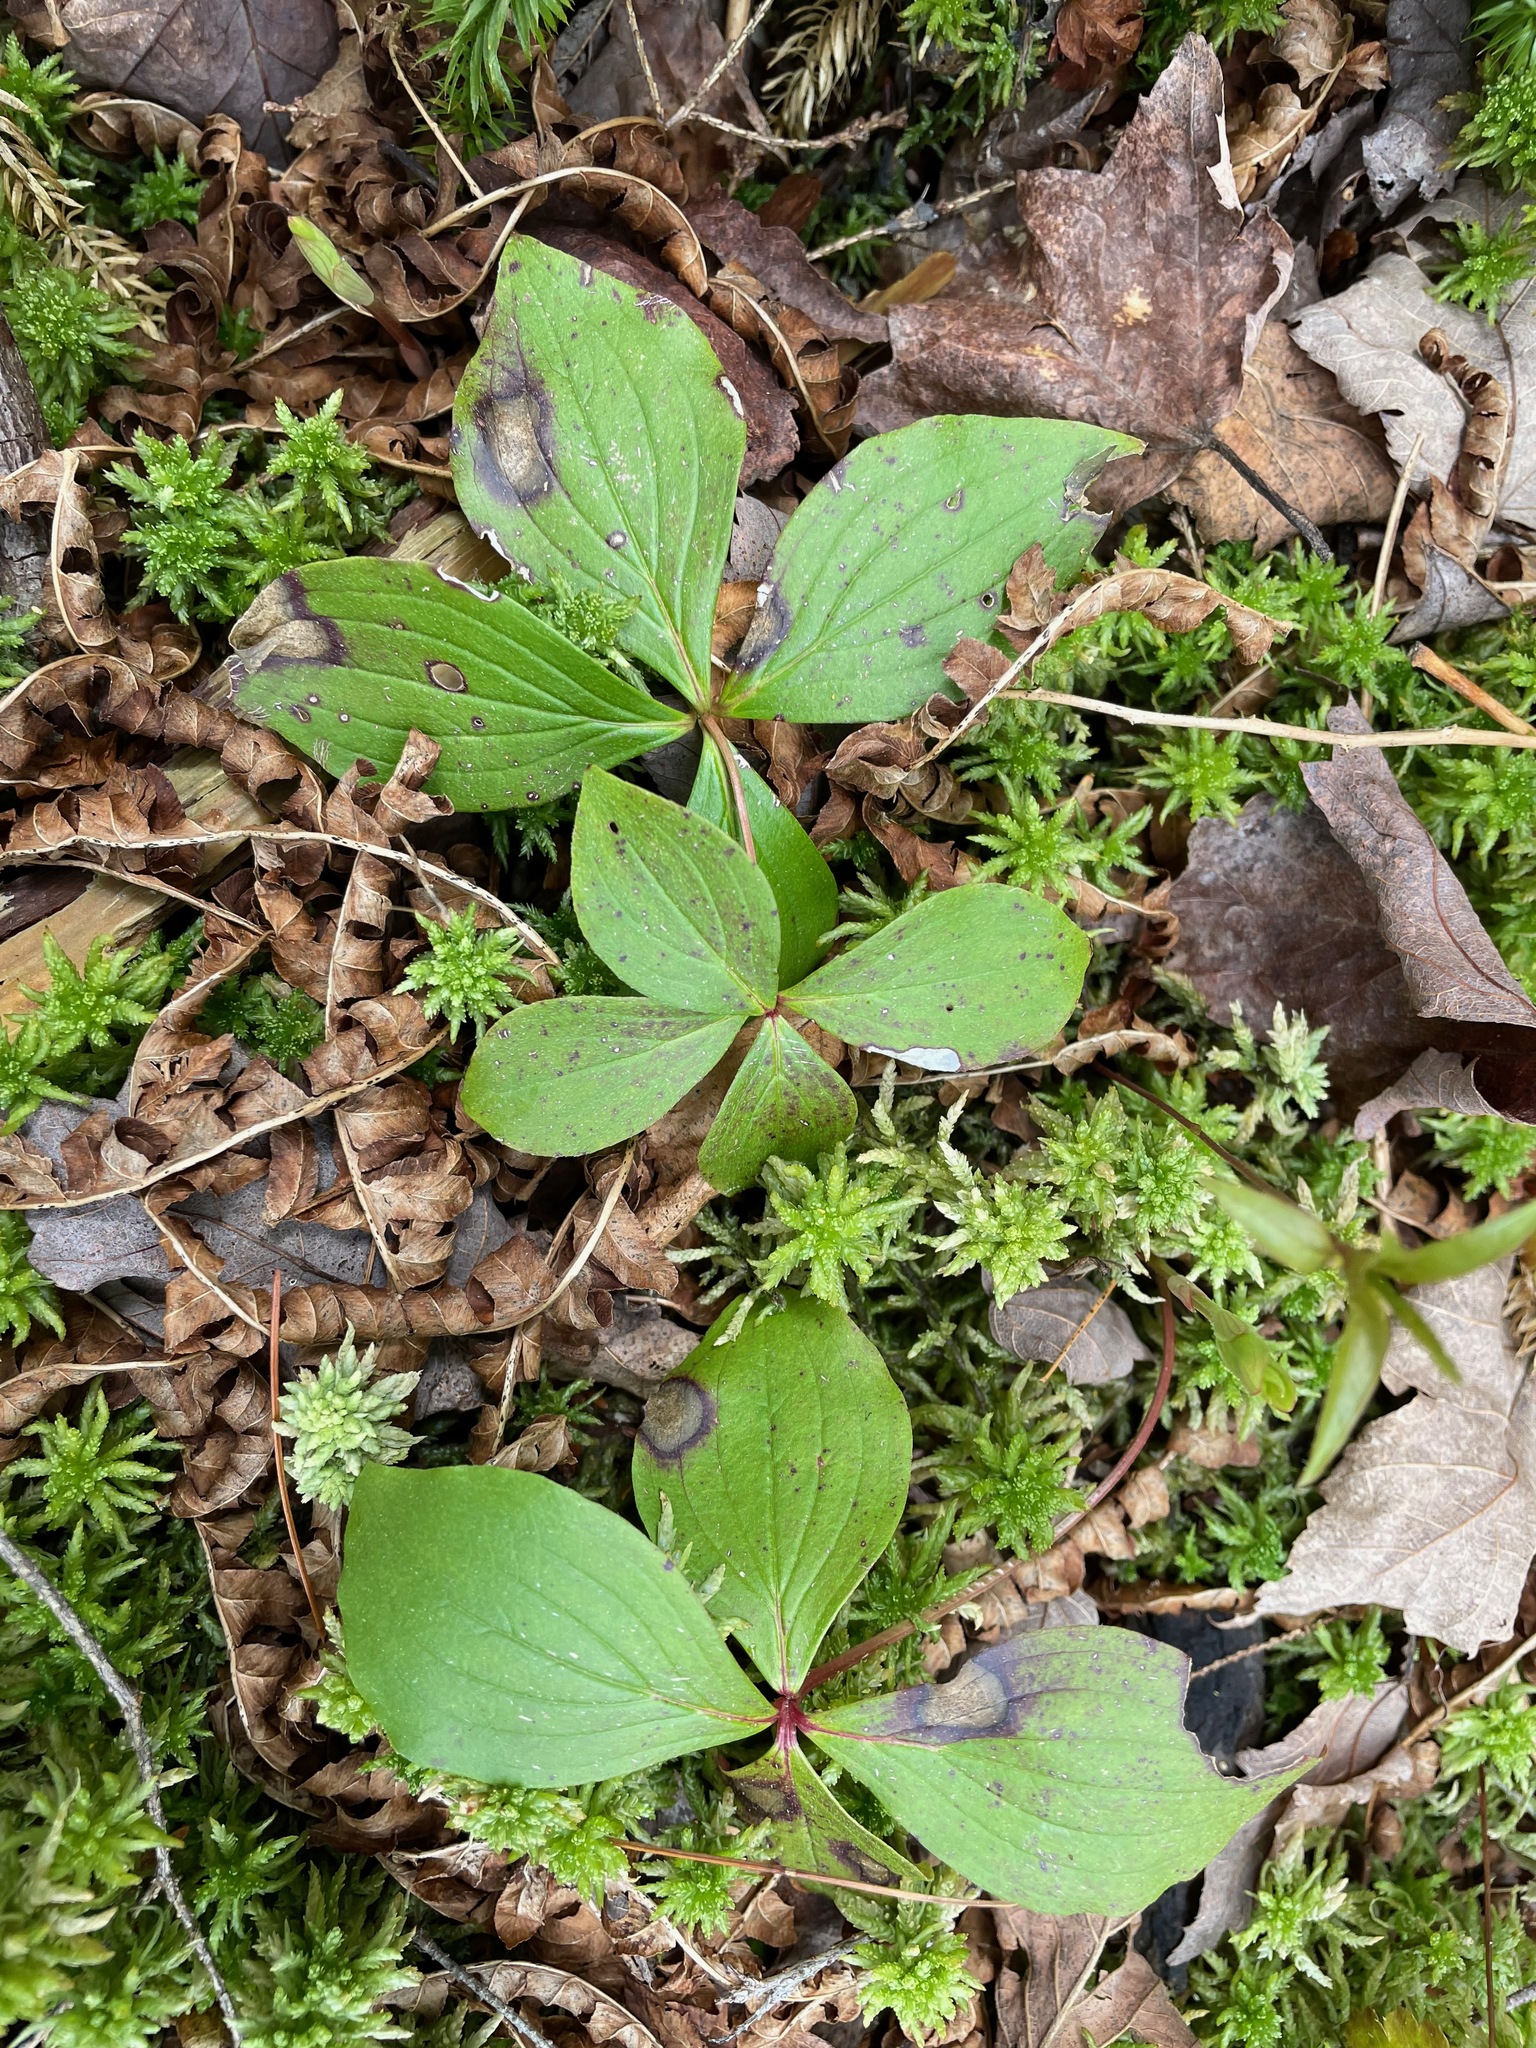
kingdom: Plantae
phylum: Tracheophyta
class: Magnoliopsida
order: Cornales
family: Cornaceae
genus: Cornus
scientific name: Cornus canadensis
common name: Creeping dogwood
